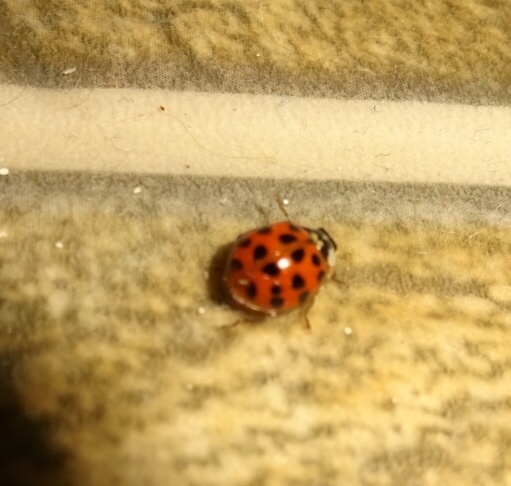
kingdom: Animalia
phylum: Arthropoda
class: Insecta
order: Coleoptera
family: Coccinellidae
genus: Harmonia
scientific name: Harmonia axyridis
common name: Harlequin ladybird
